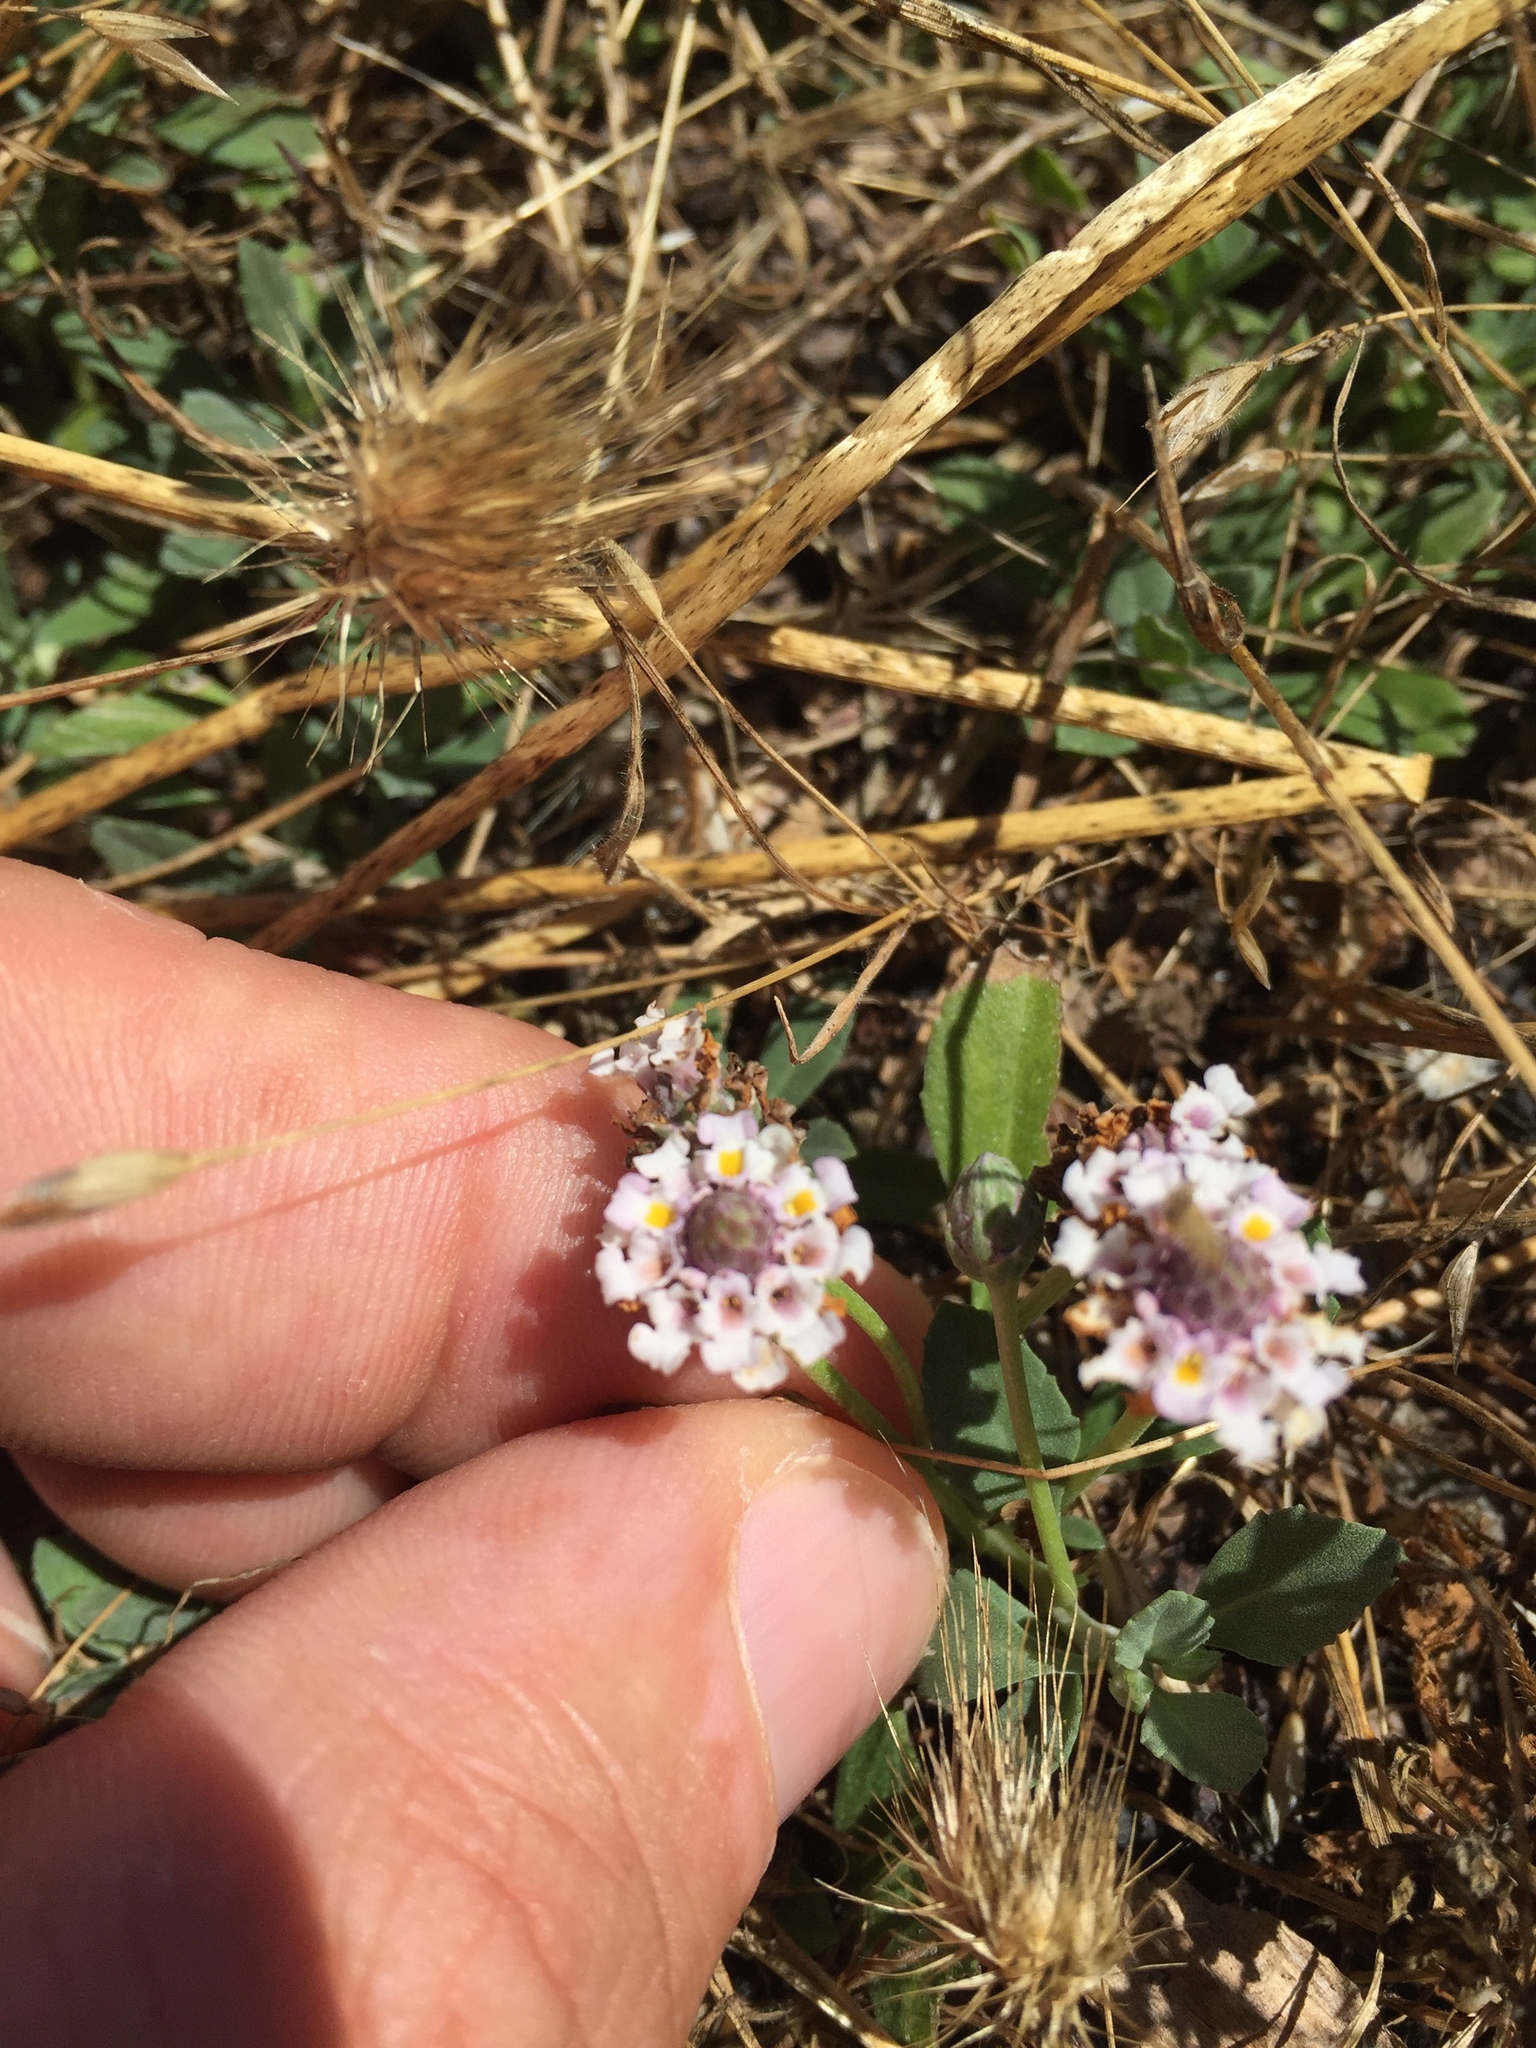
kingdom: Plantae
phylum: Tracheophyta
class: Magnoliopsida
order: Lamiales
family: Verbenaceae
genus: Phyla
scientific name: Phyla nodiflora
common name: Frogfruit
